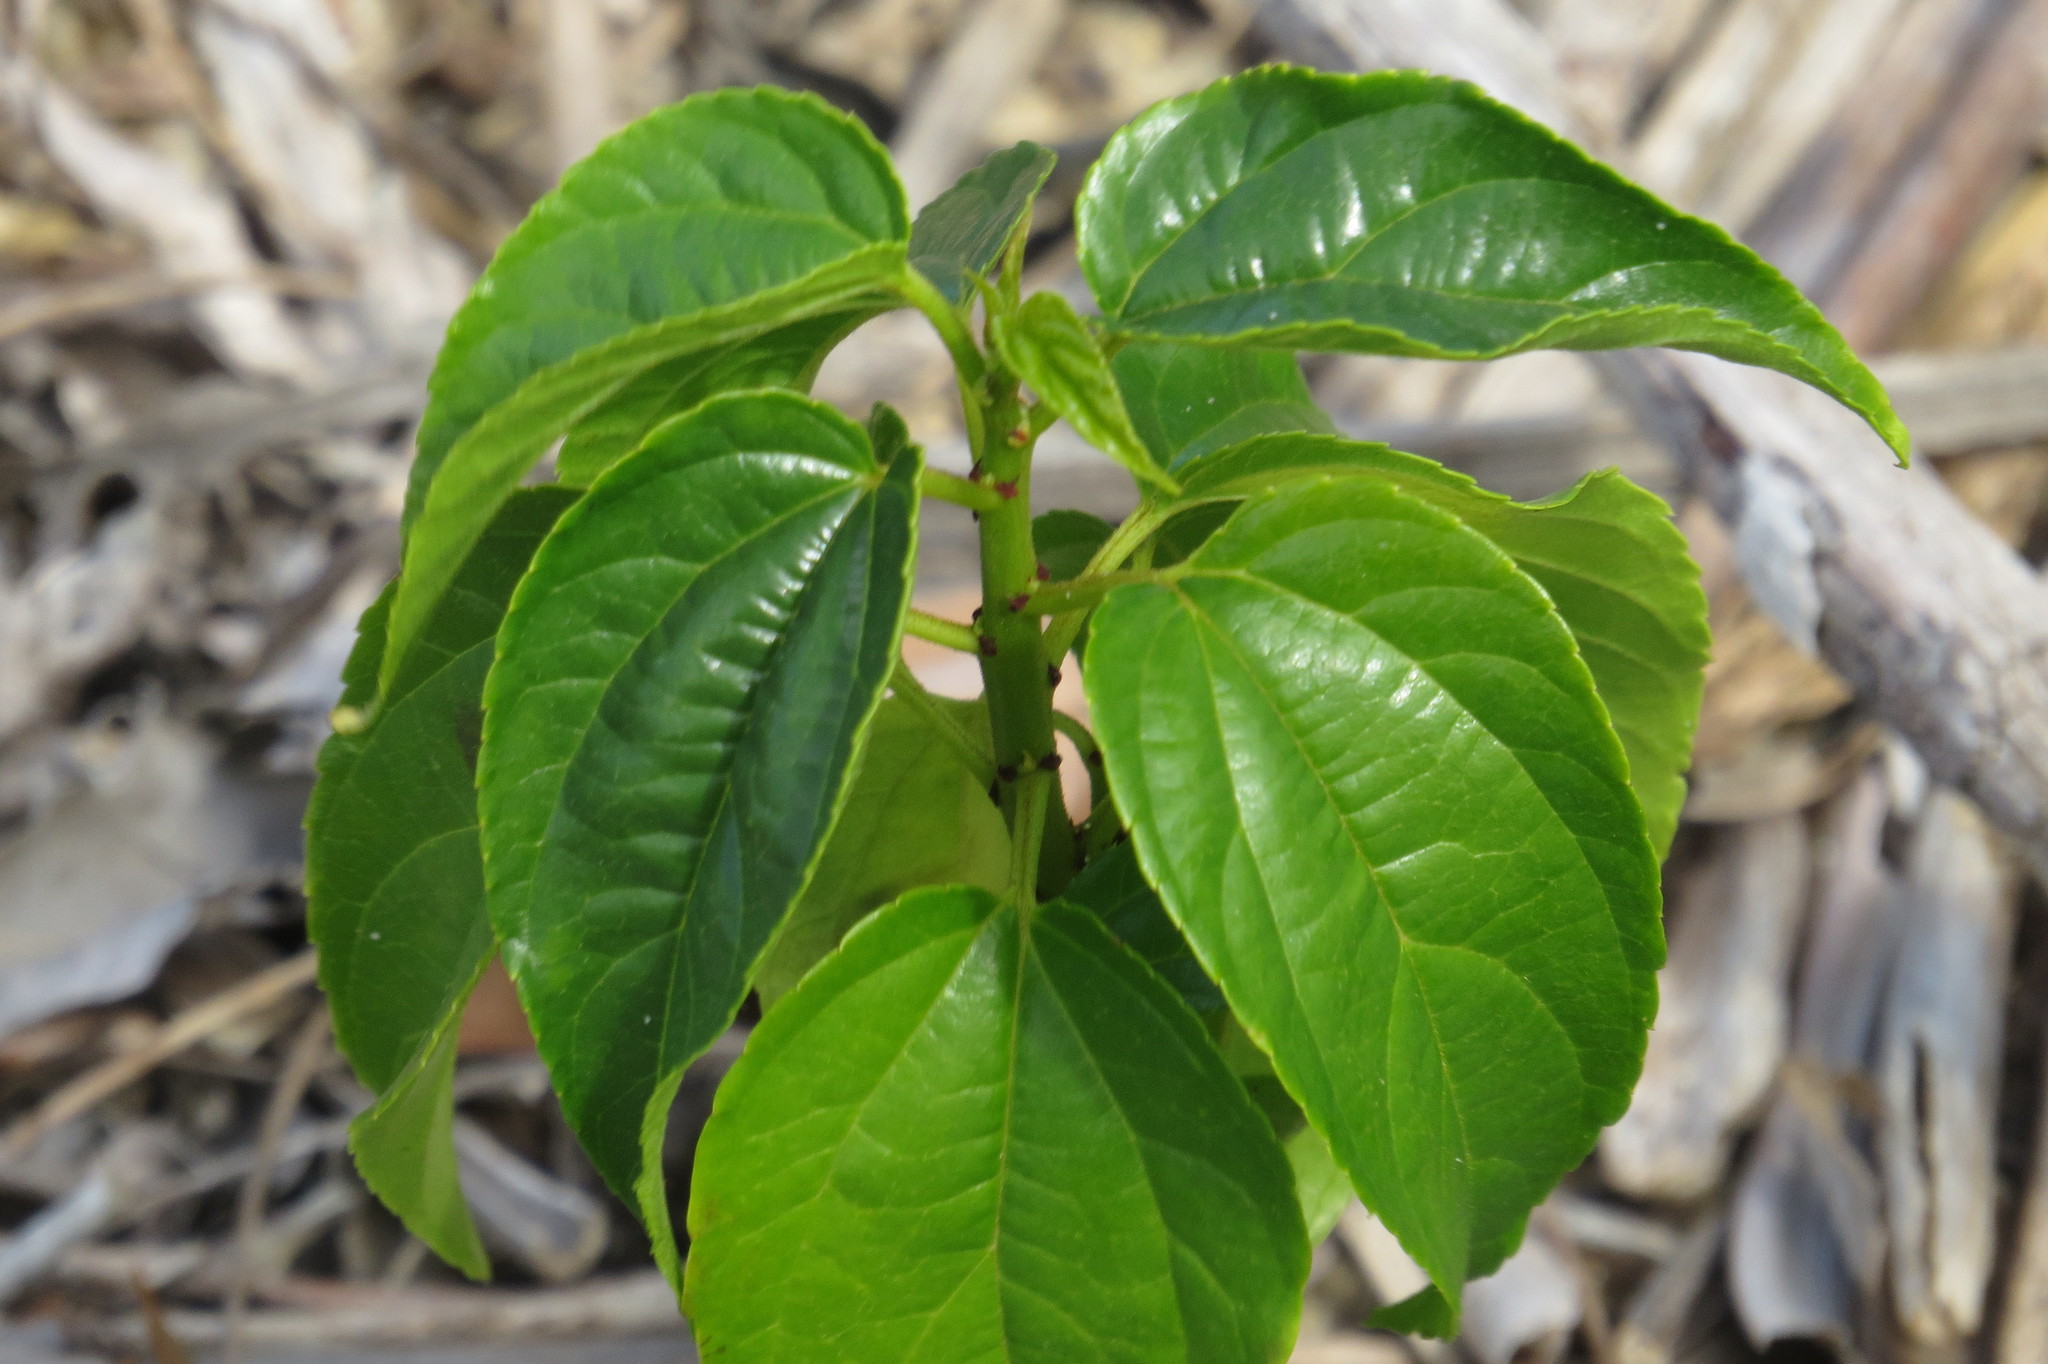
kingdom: Plantae
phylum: Tracheophyta
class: Magnoliopsida
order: Rosales
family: Rhamnaceae
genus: Colubrina
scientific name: Colubrina asiatica
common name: Asian nakedwood
